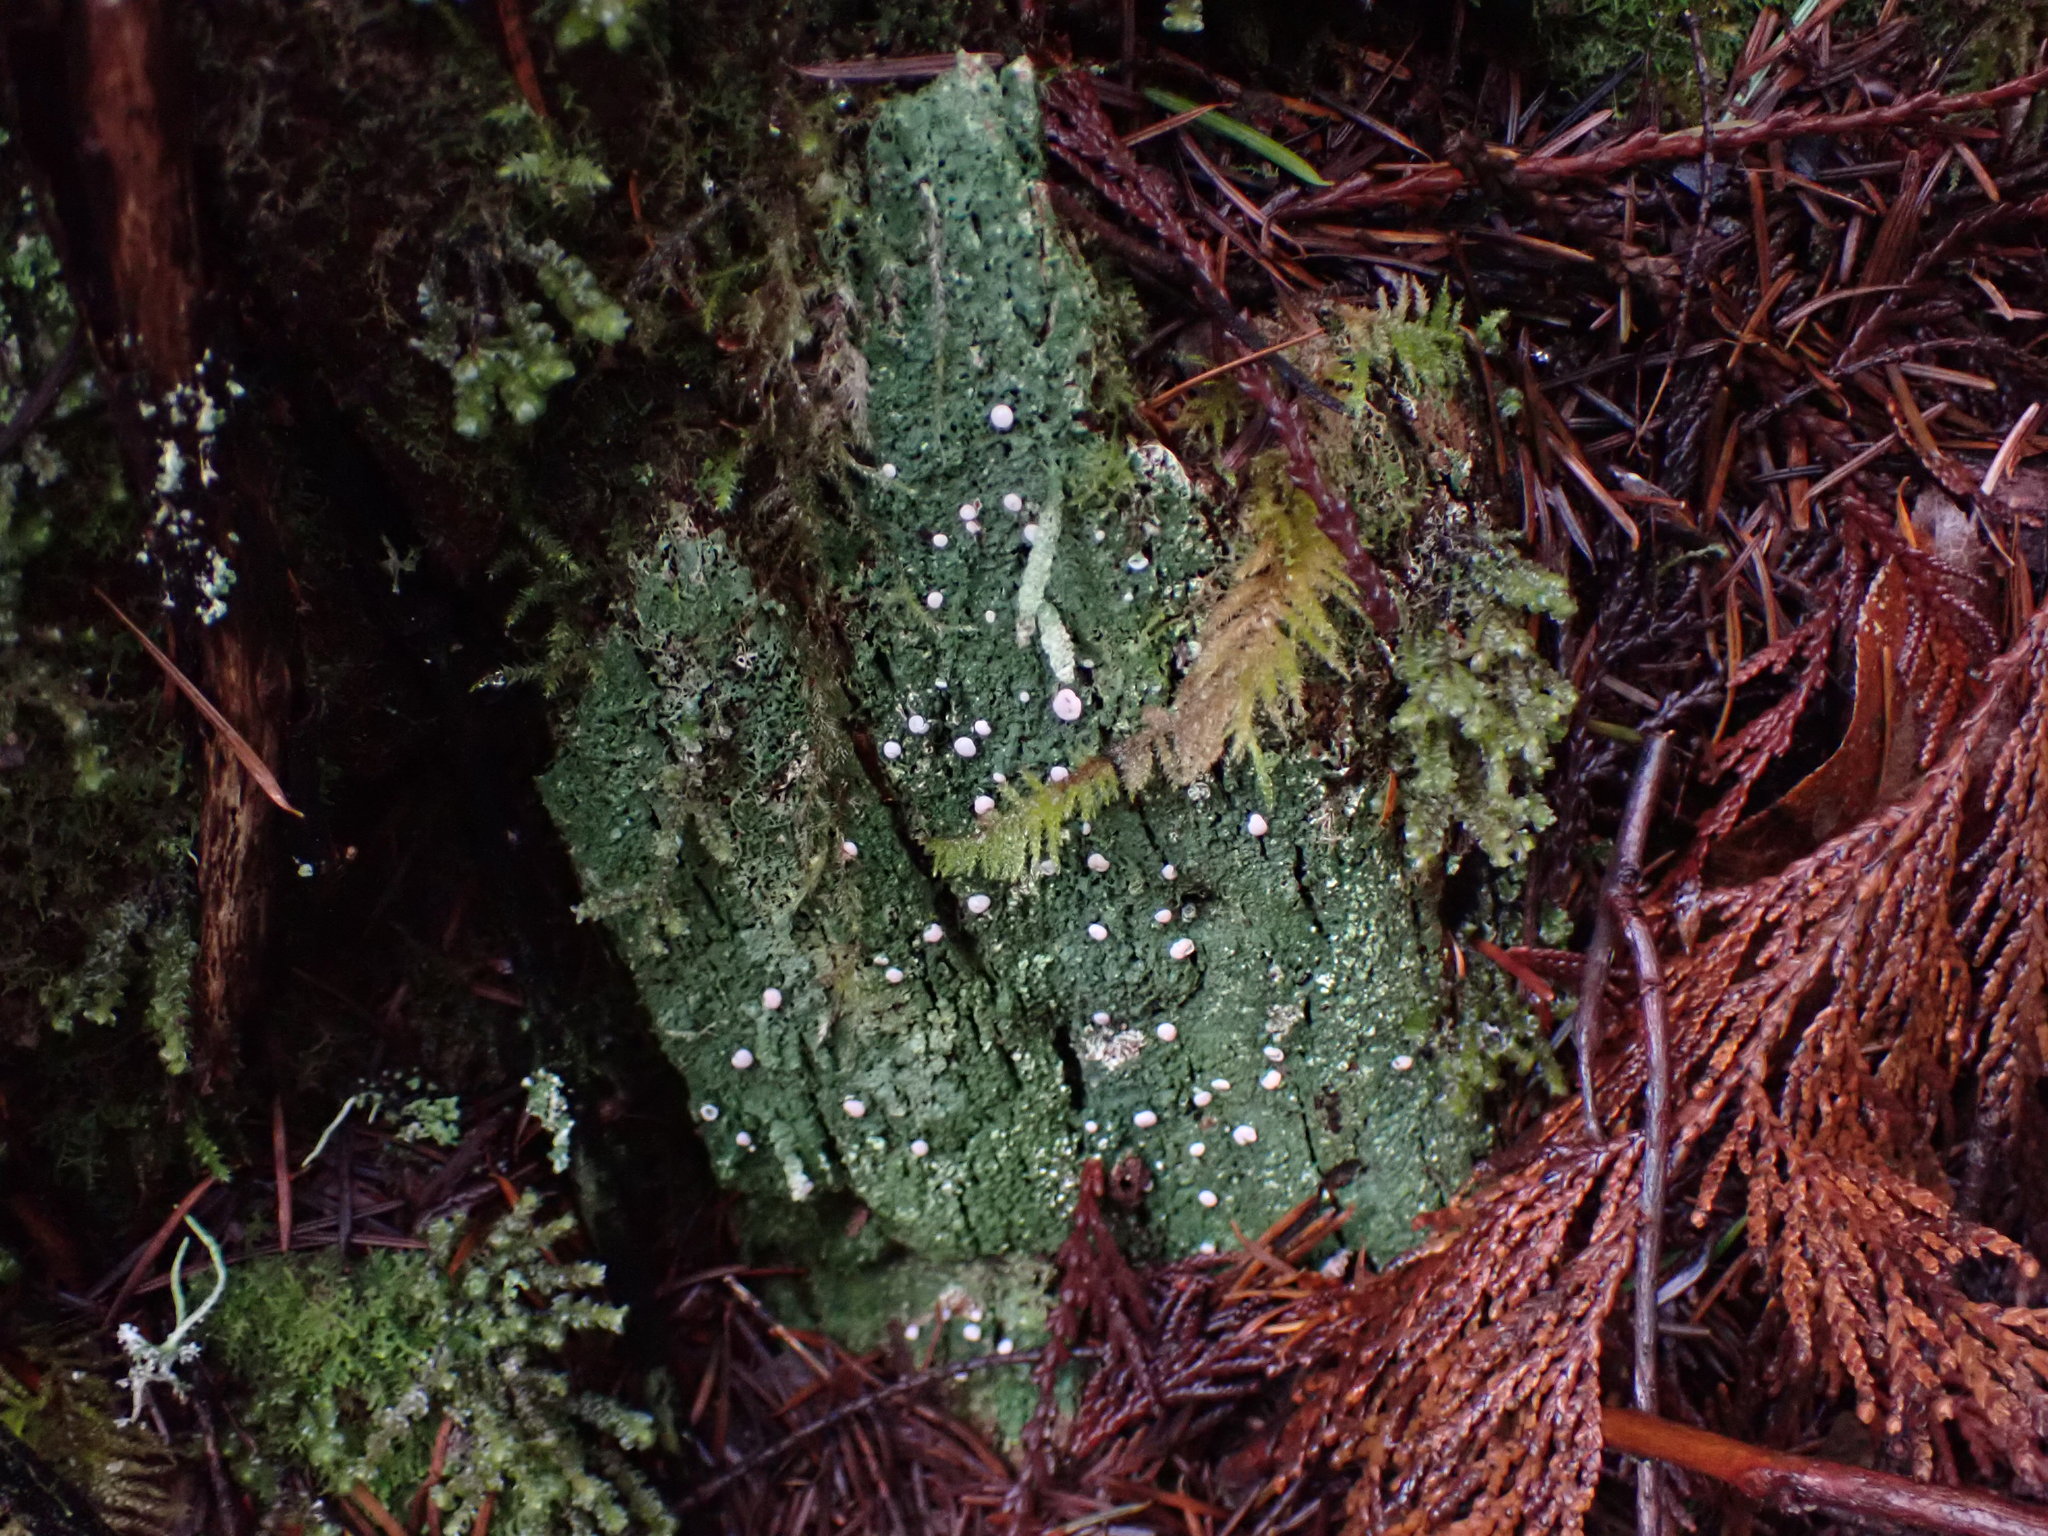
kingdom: Fungi
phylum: Ascomycota
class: Lecanoromycetes
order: Pertusariales
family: Icmadophilaceae
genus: Icmadophila
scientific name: Icmadophila ericetorum
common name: Candy lichen
